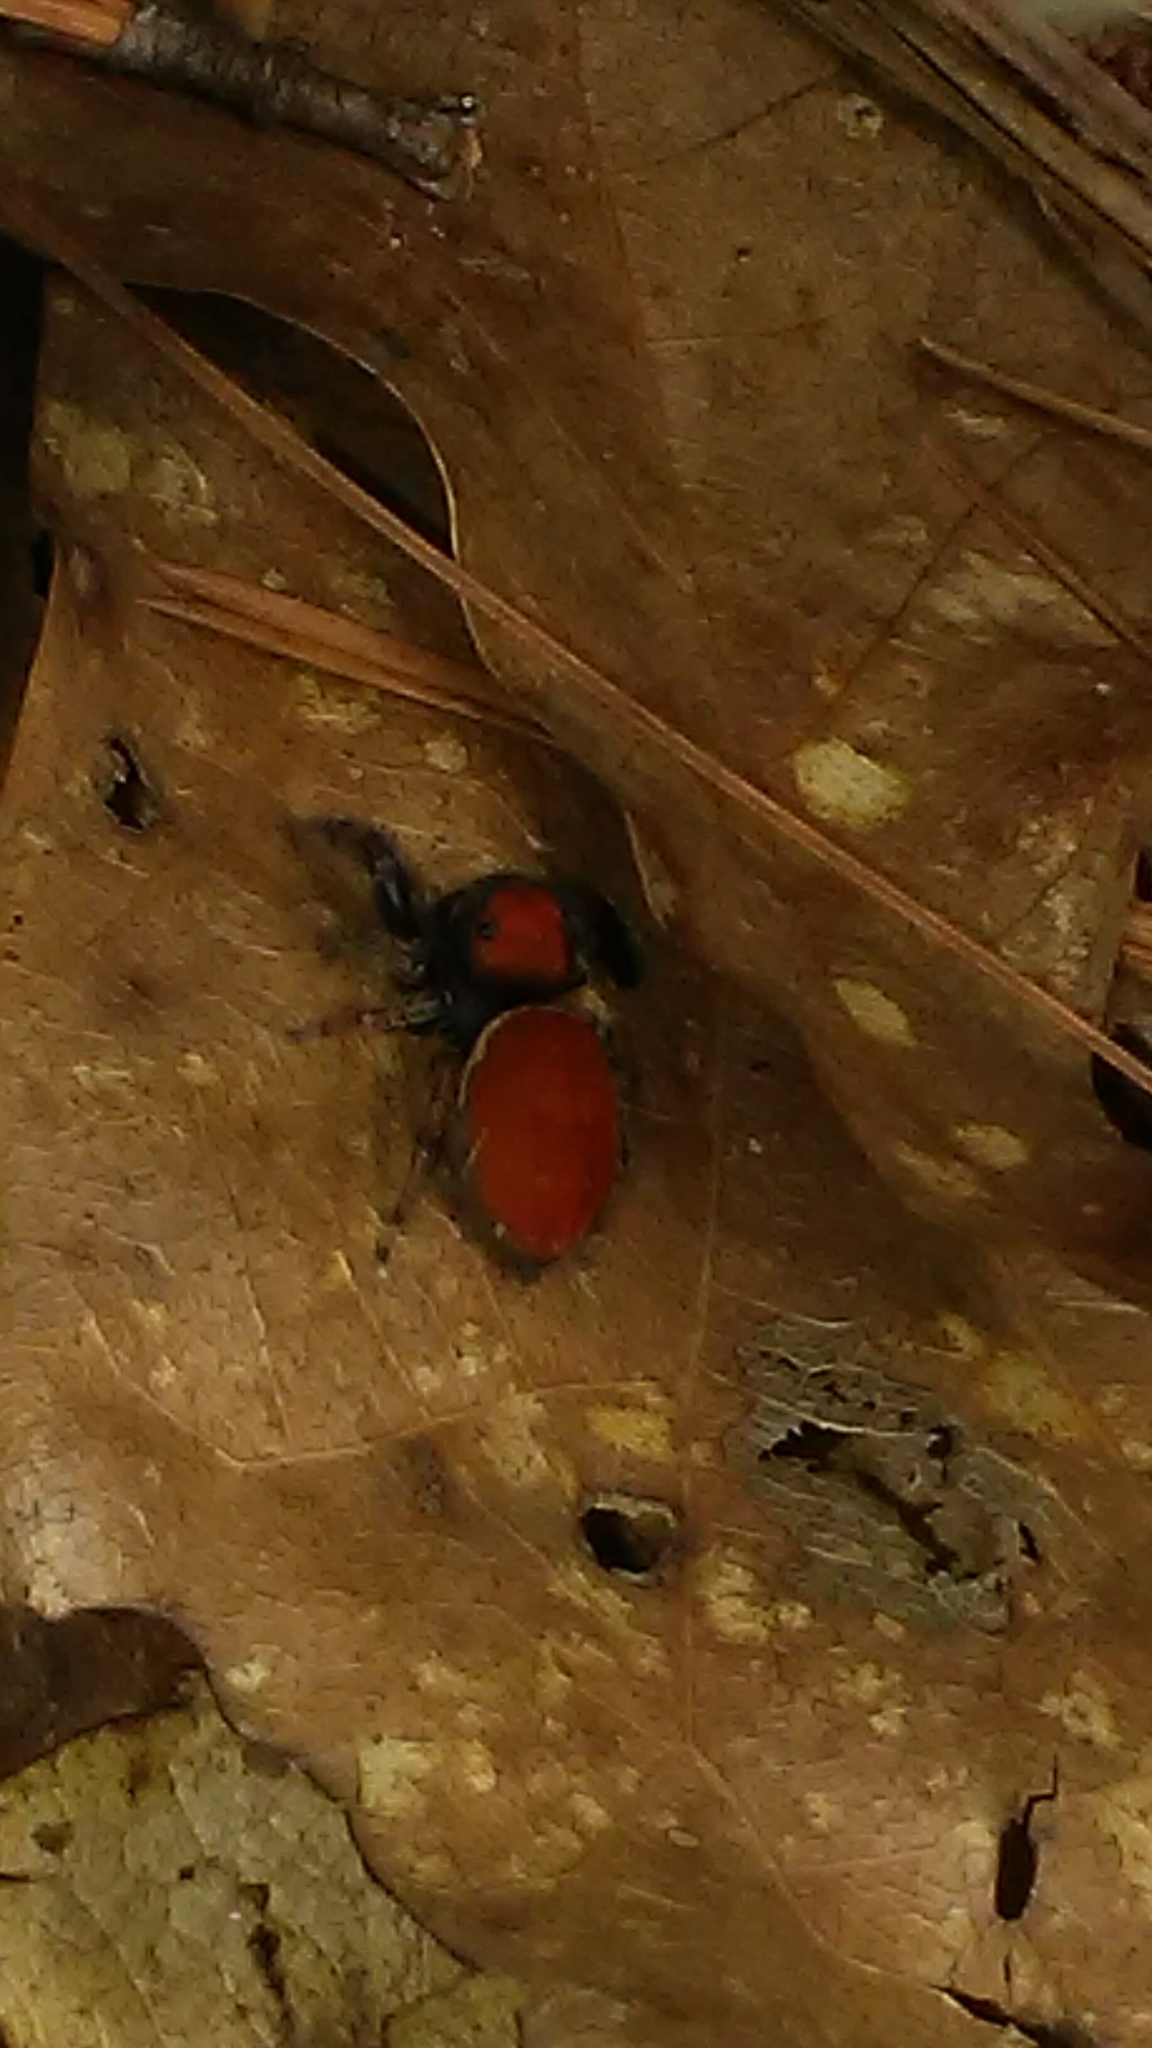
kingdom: Animalia
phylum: Arthropoda
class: Arachnida
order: Araneae
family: Salticidae
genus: Phidippus
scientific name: Phidippus whitmani
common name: Whitman's jumping spider
